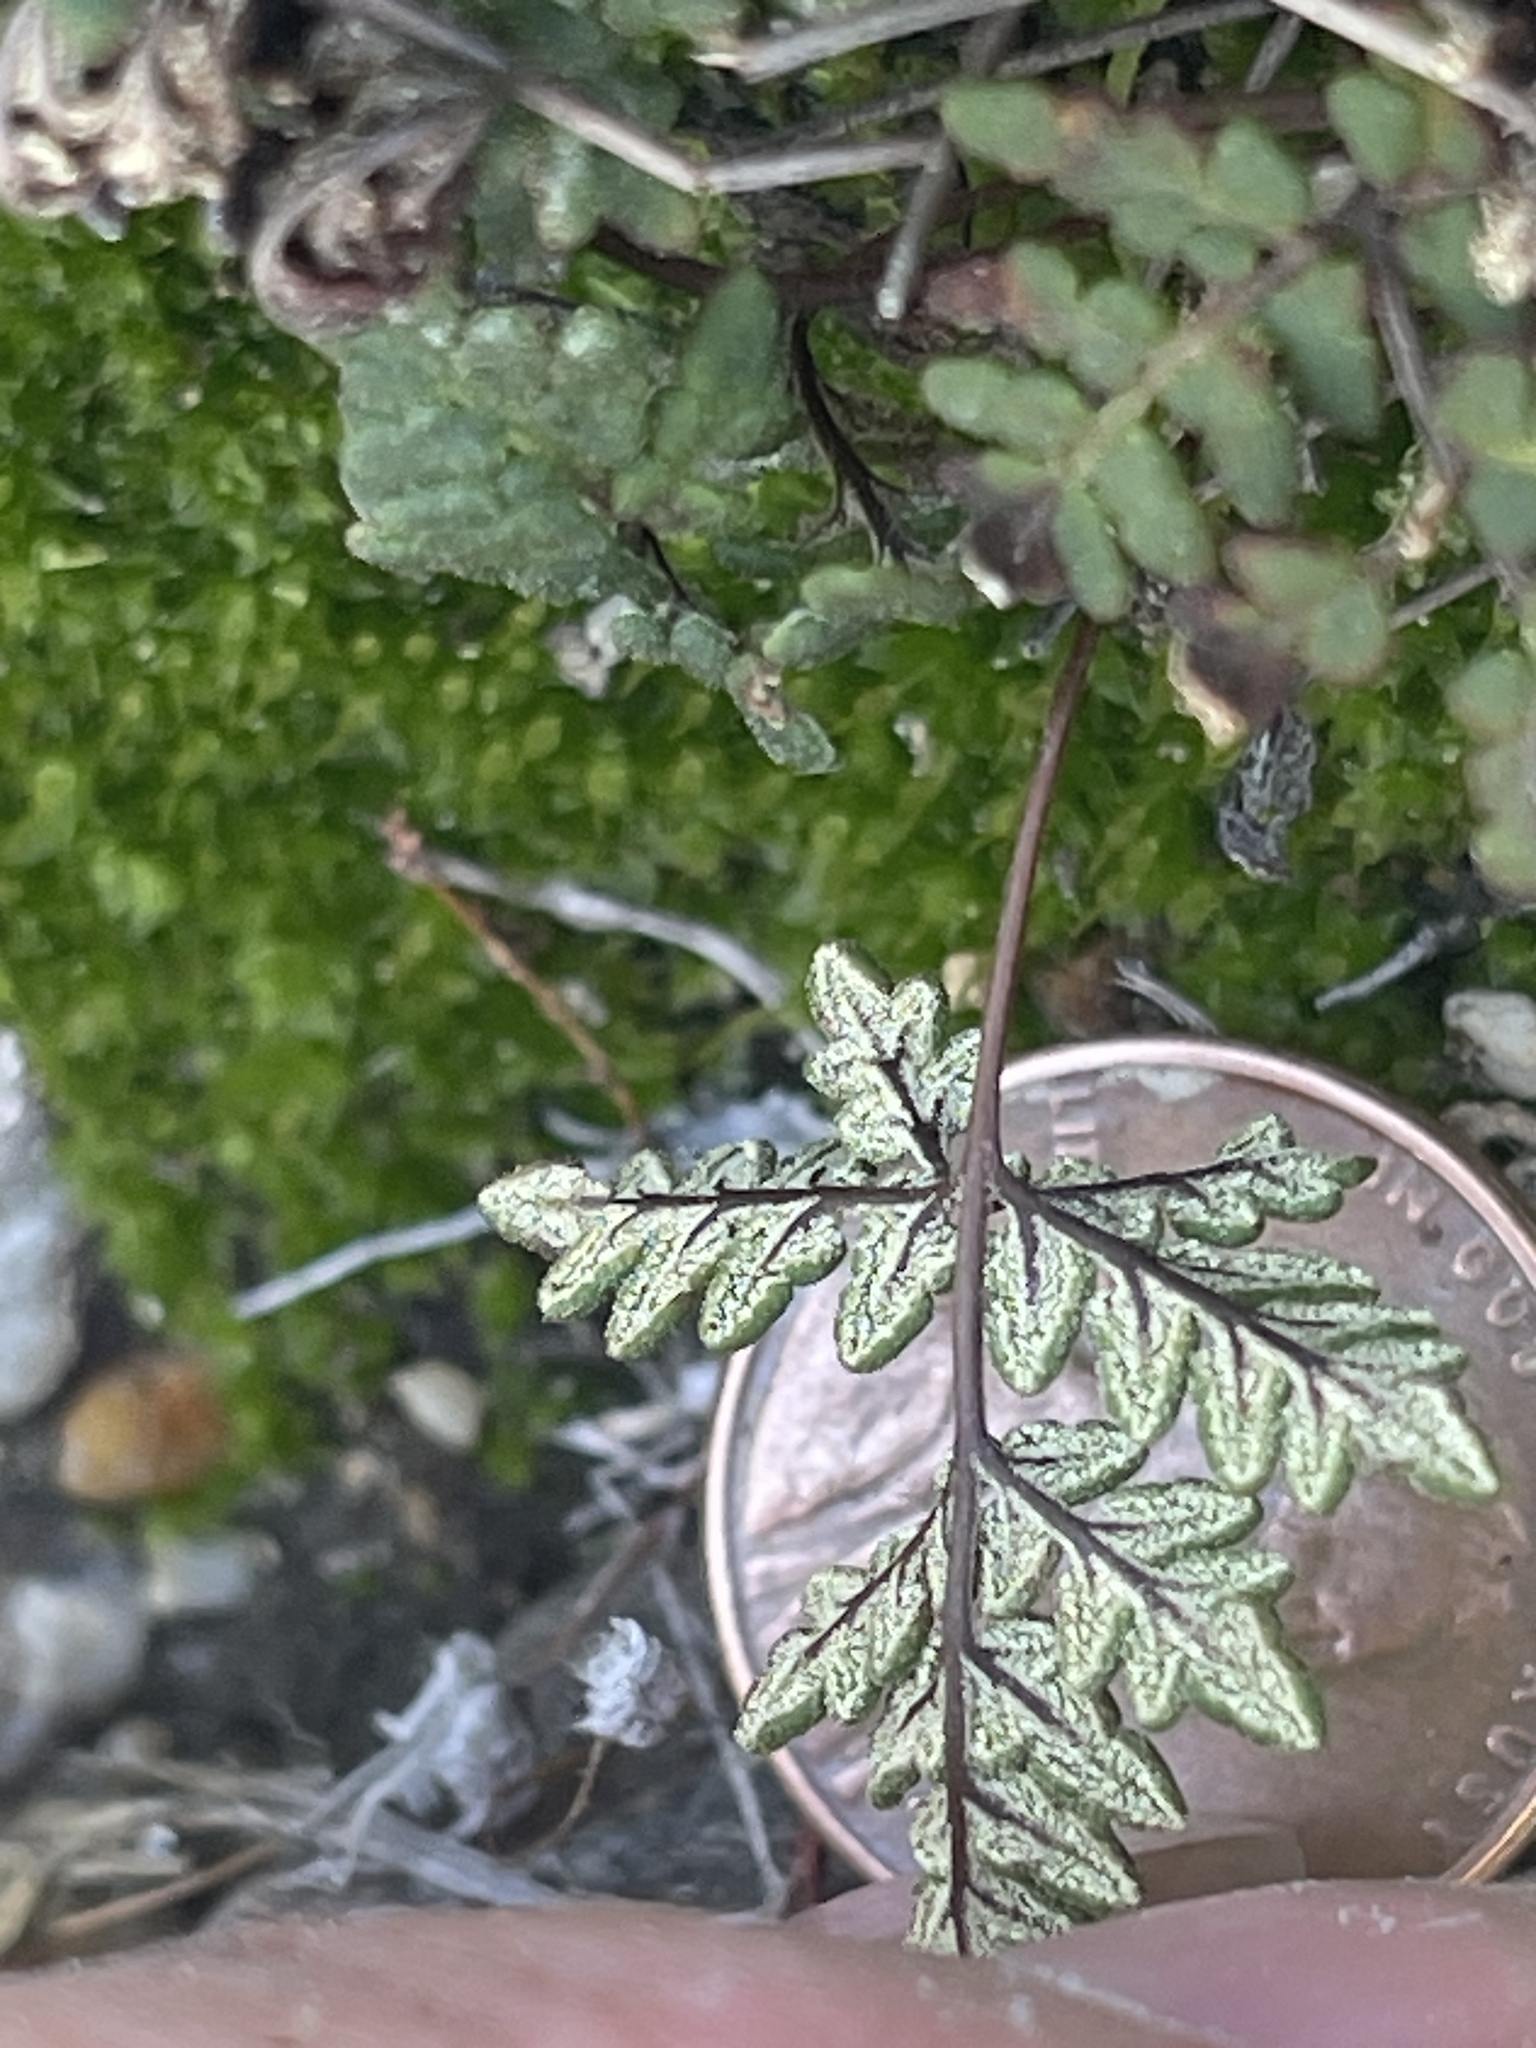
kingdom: Plantae
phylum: Tracheophyta
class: Polypodiopsida
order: Polypodiales
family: Pteridaceae
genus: Notholaena
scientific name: Notholaena californica
